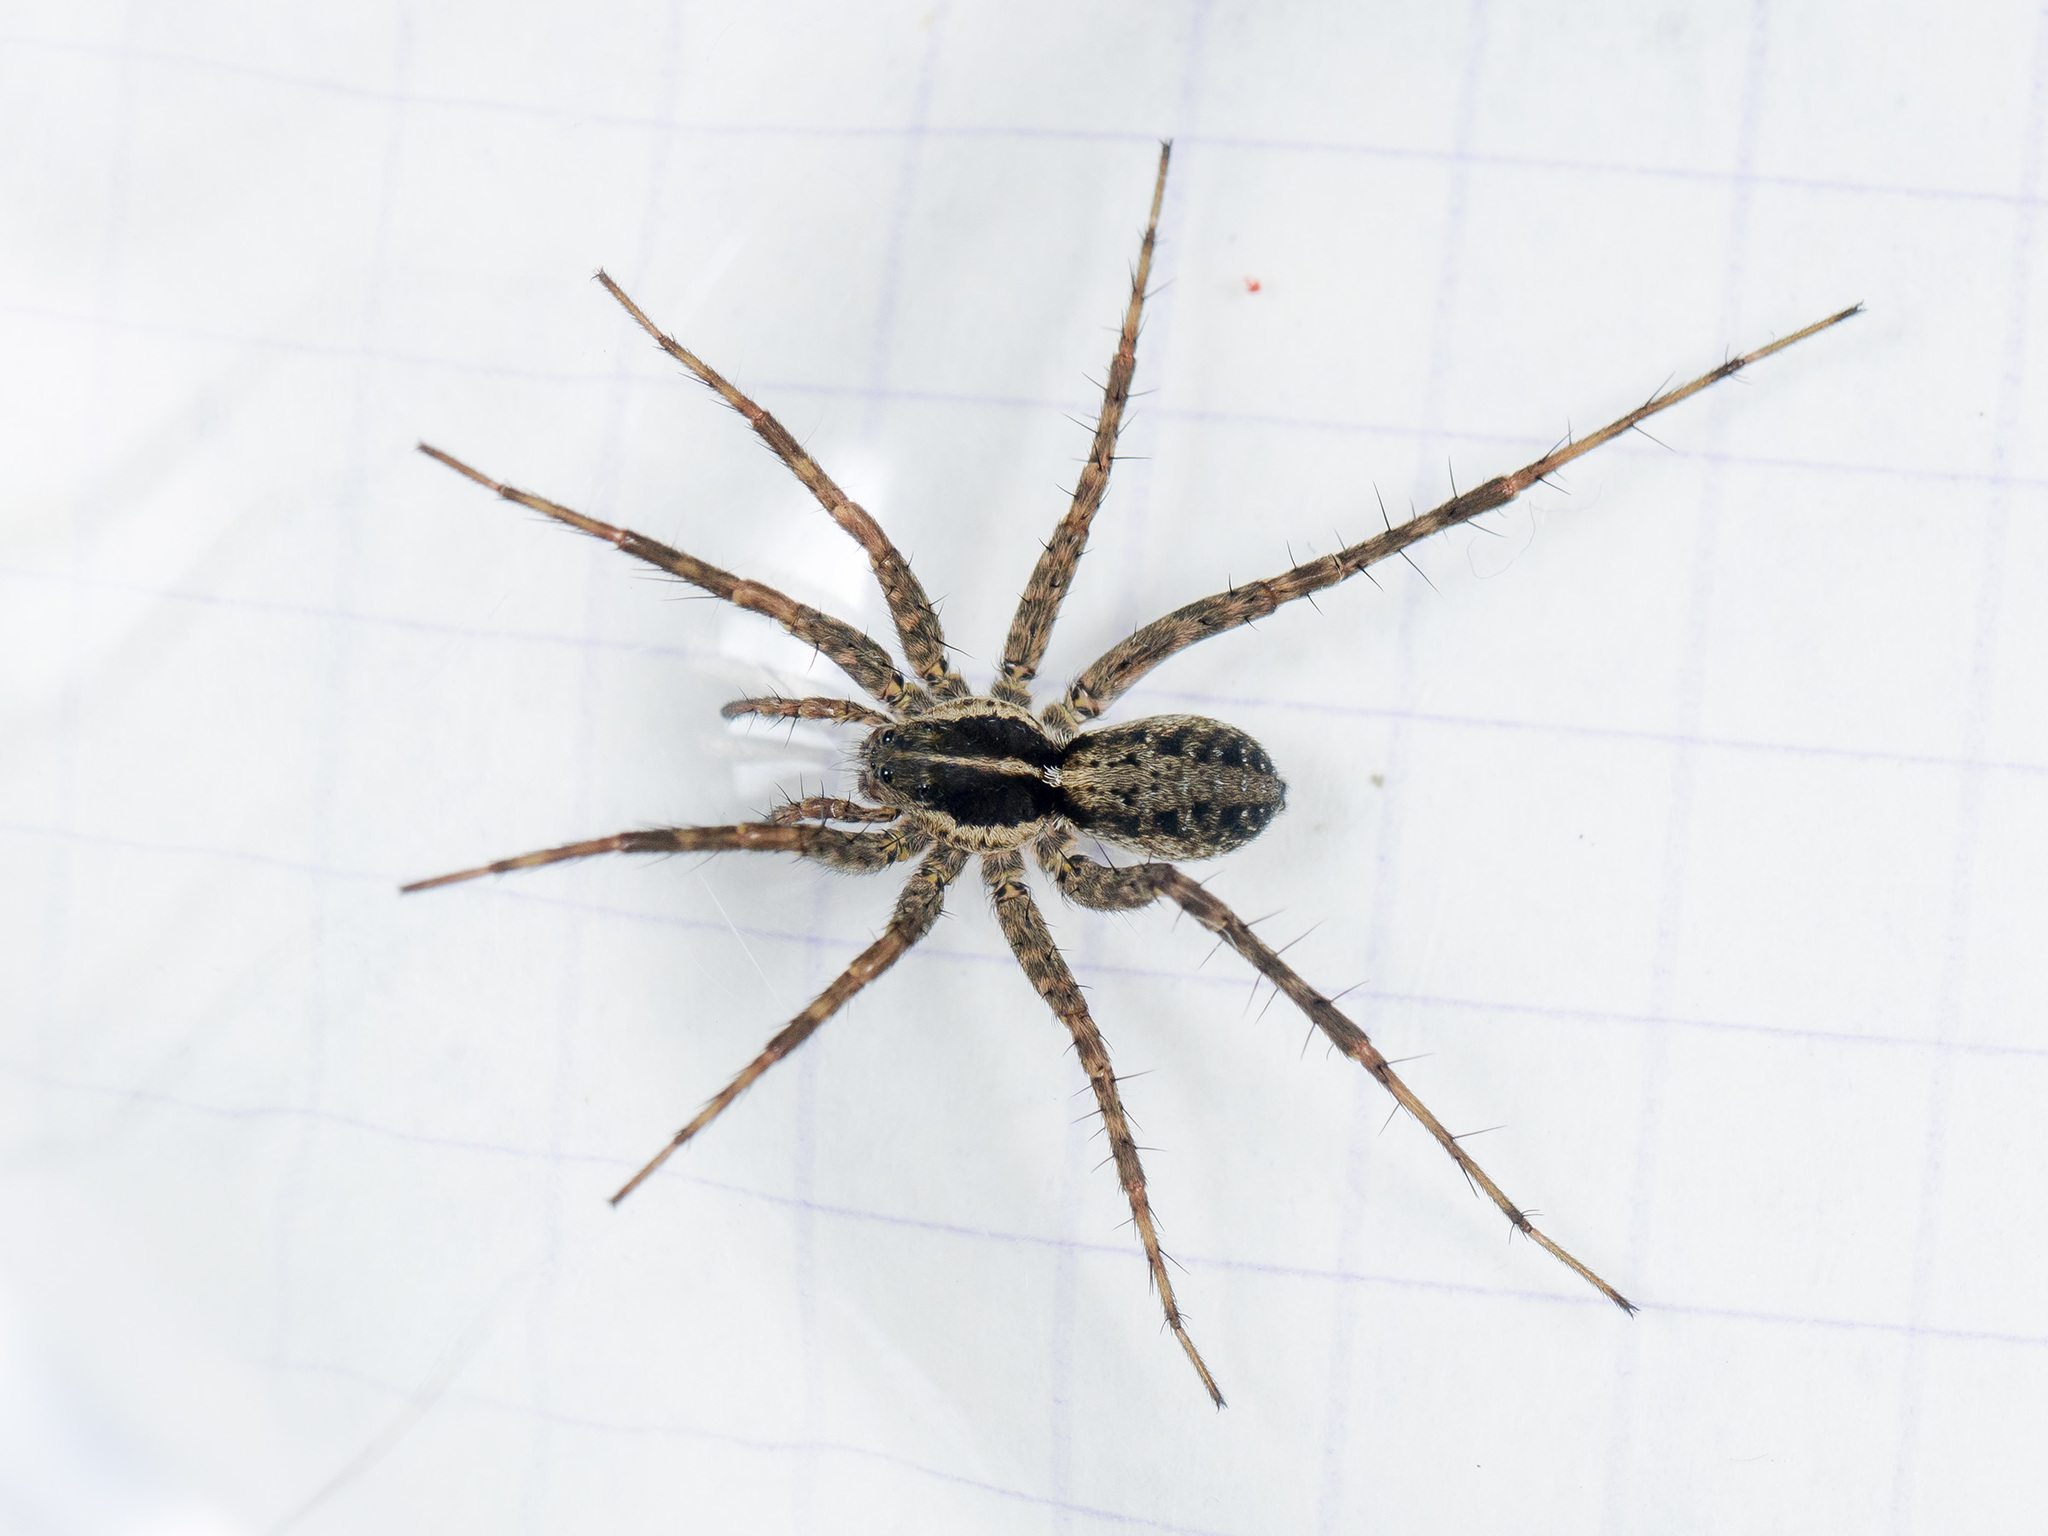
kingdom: Animalia
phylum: Arthropoda
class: Arachnida
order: Araneae
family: Lycosidae
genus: Pardosa
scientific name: Pardosa zonsteini
